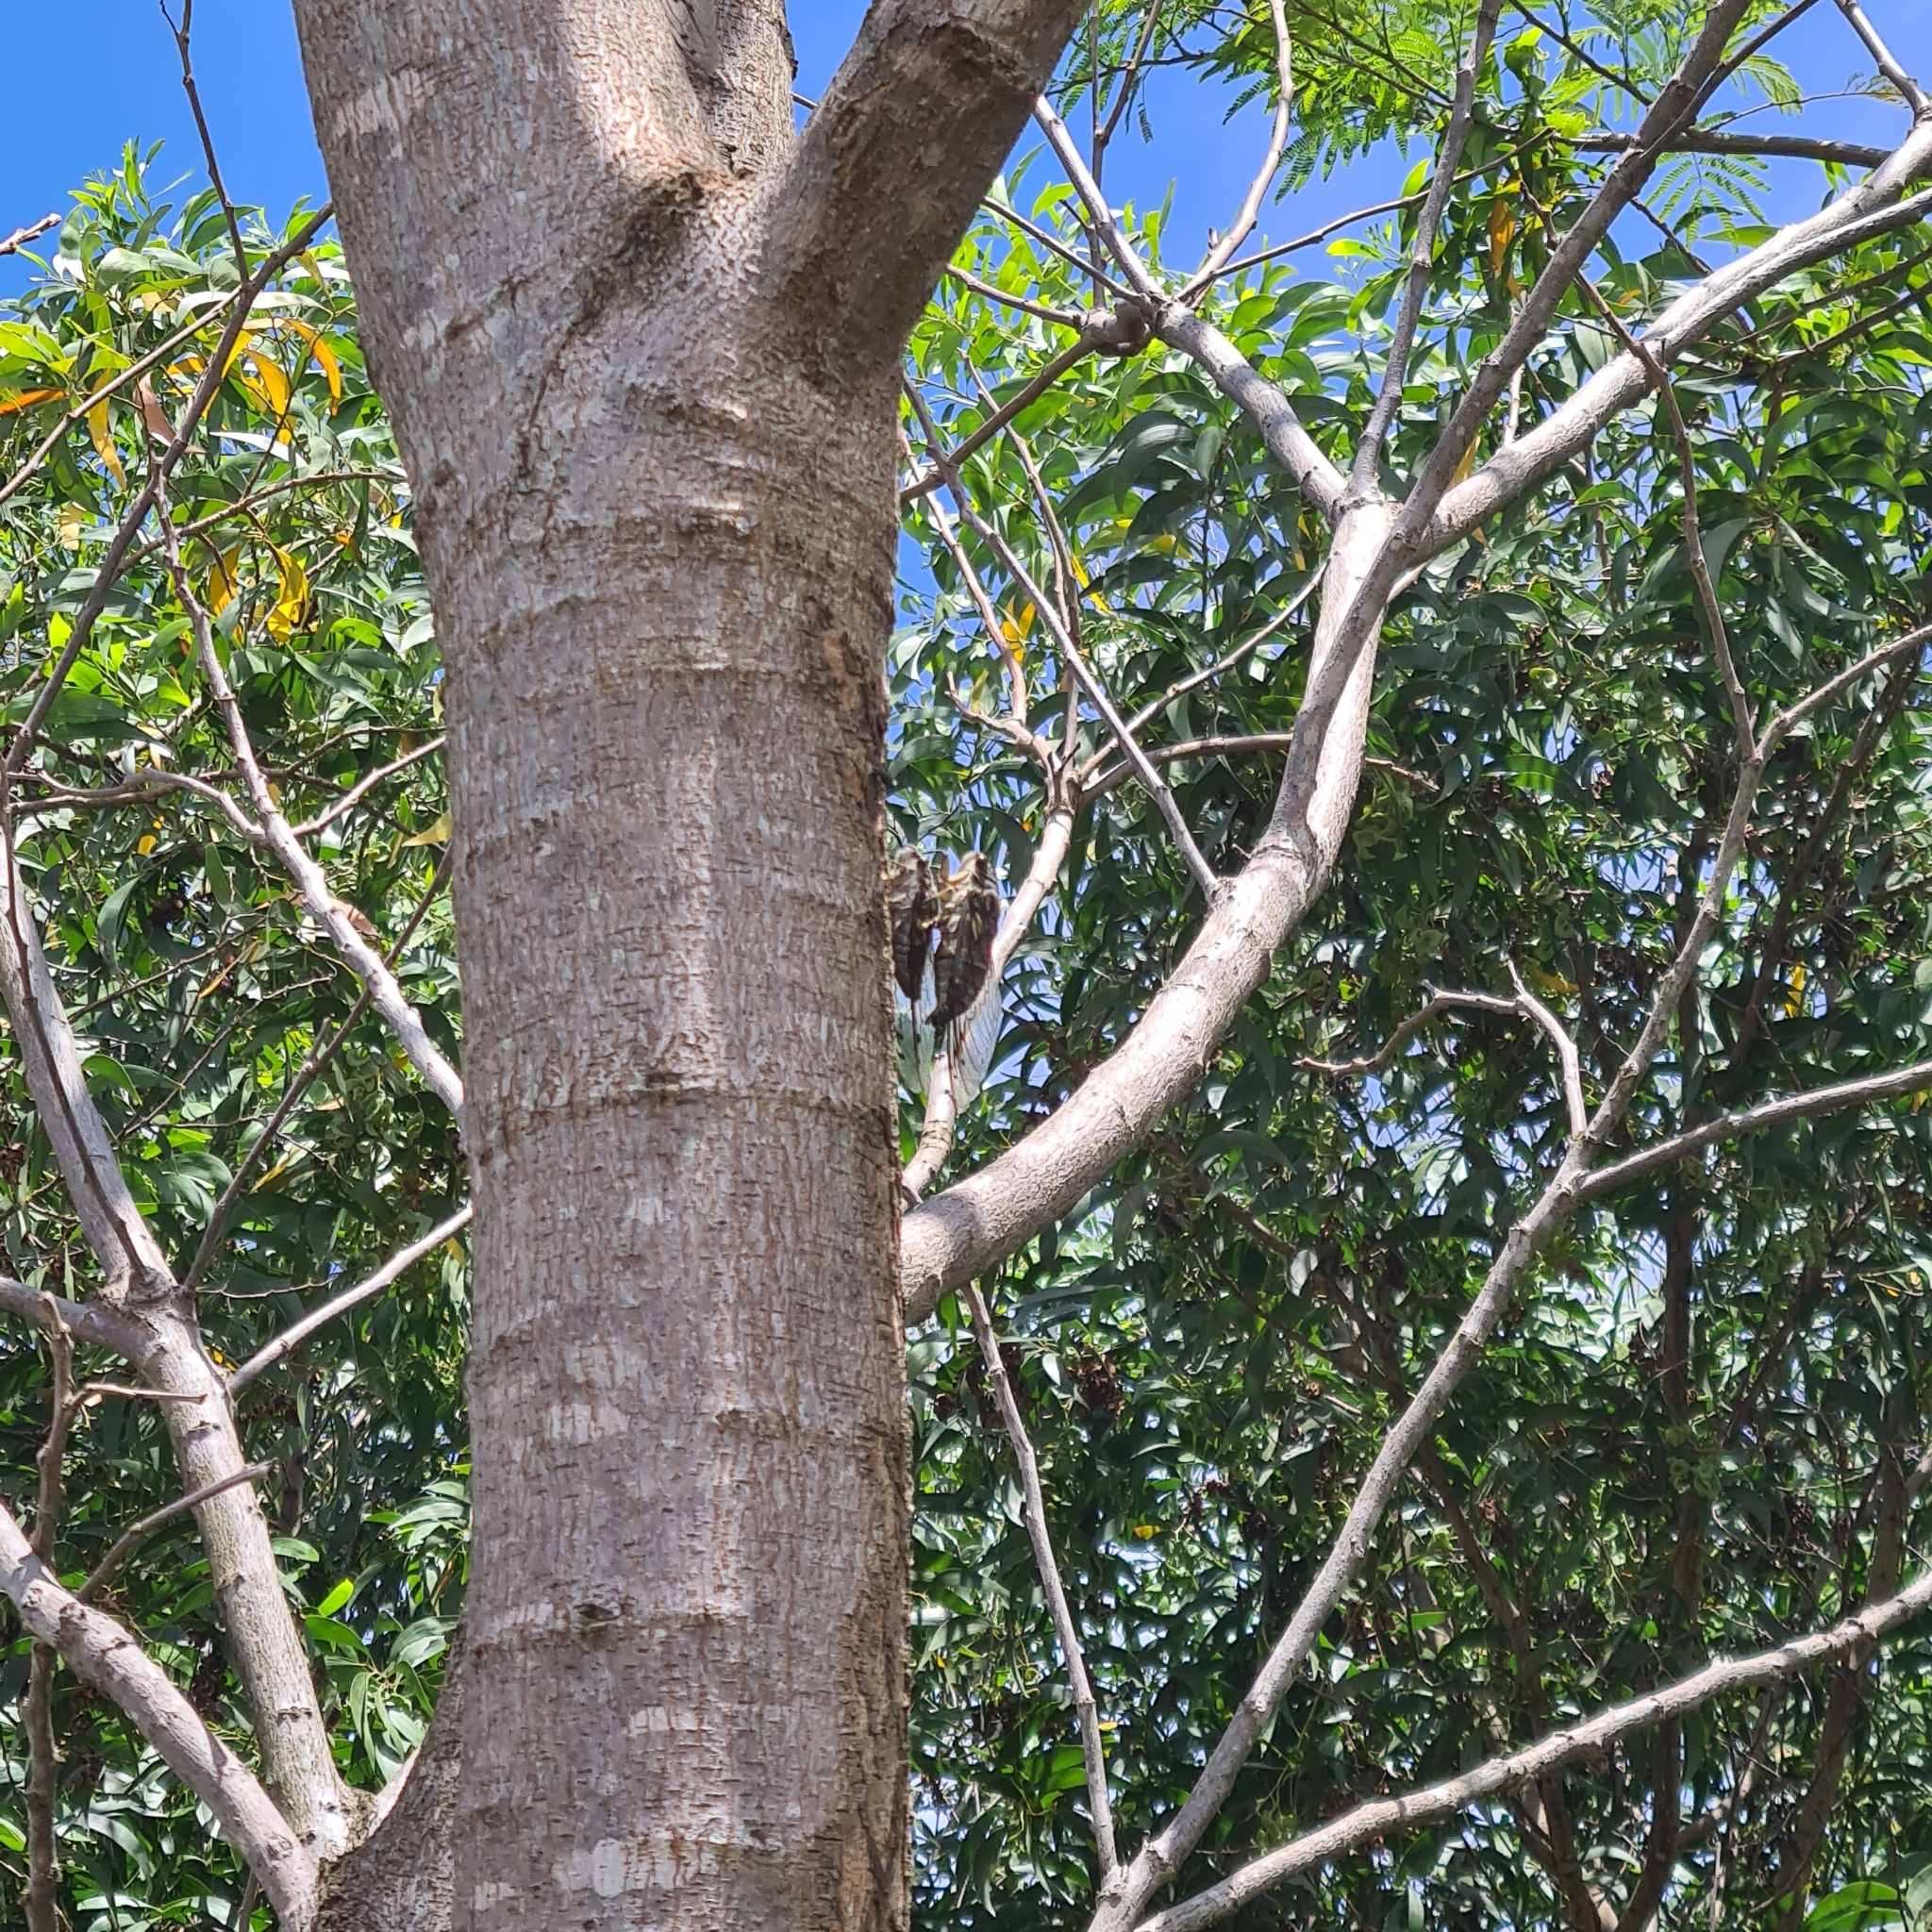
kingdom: Animalia
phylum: Arthropoda
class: Insecta
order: Hemiptera
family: Cicadidae
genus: Quesada
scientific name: Quesada gigas
